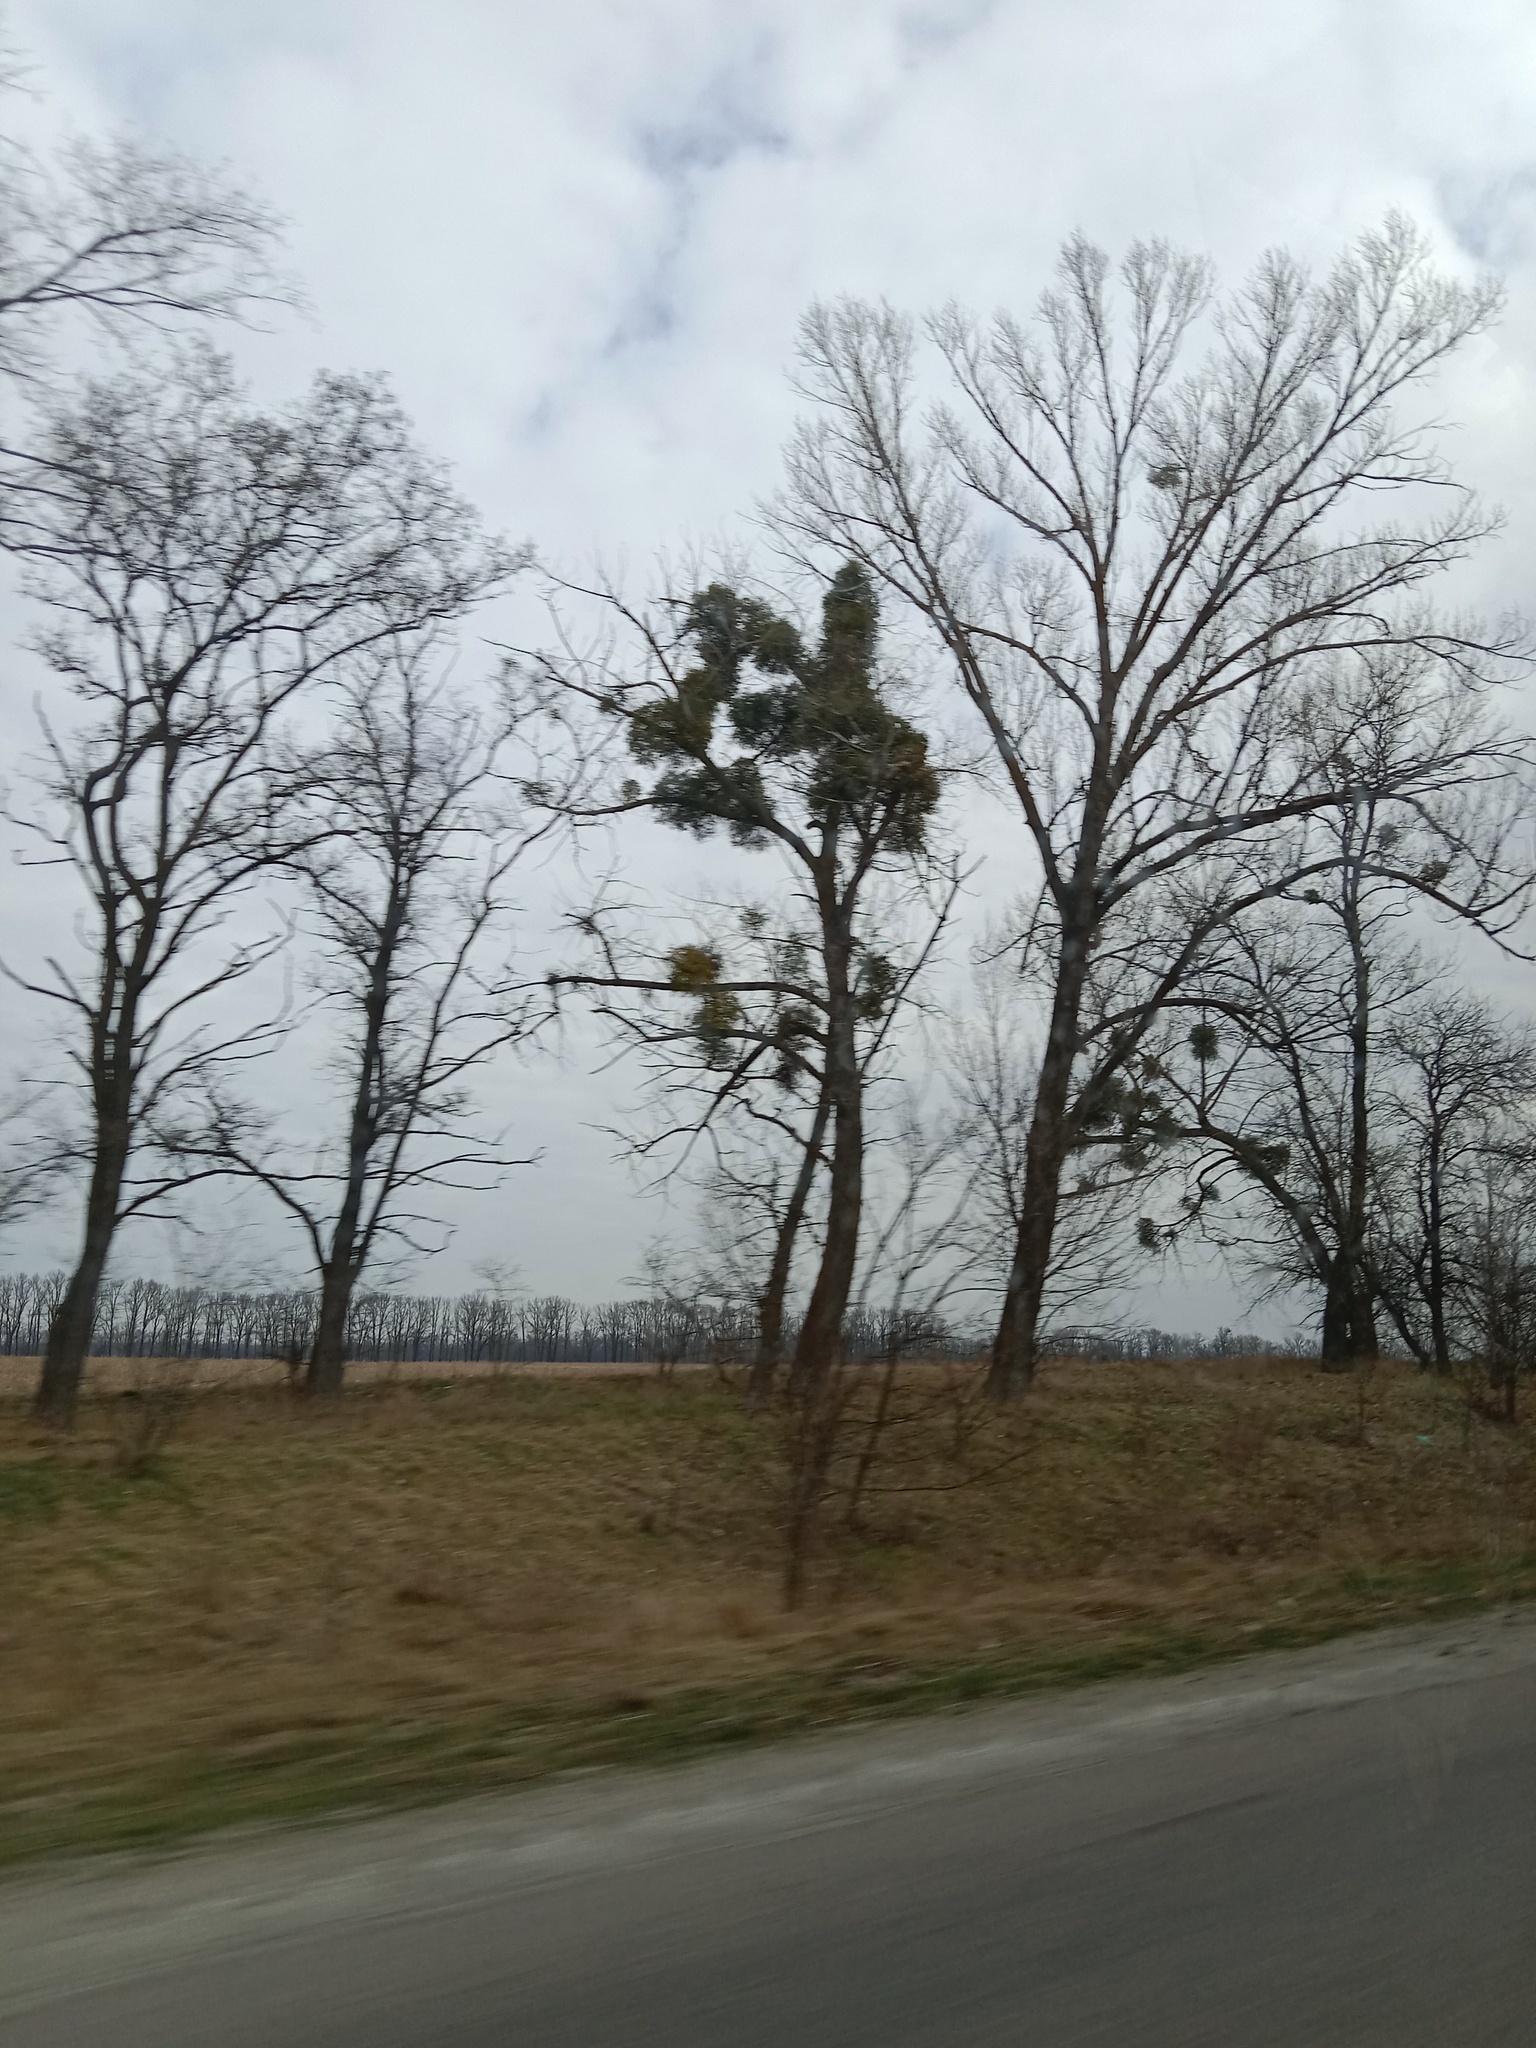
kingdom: Plantae
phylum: Tracheophyta
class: Magnoliopsida
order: Santalales
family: Viscaceae
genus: Viscum
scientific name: Viscum album
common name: Mistletoe
